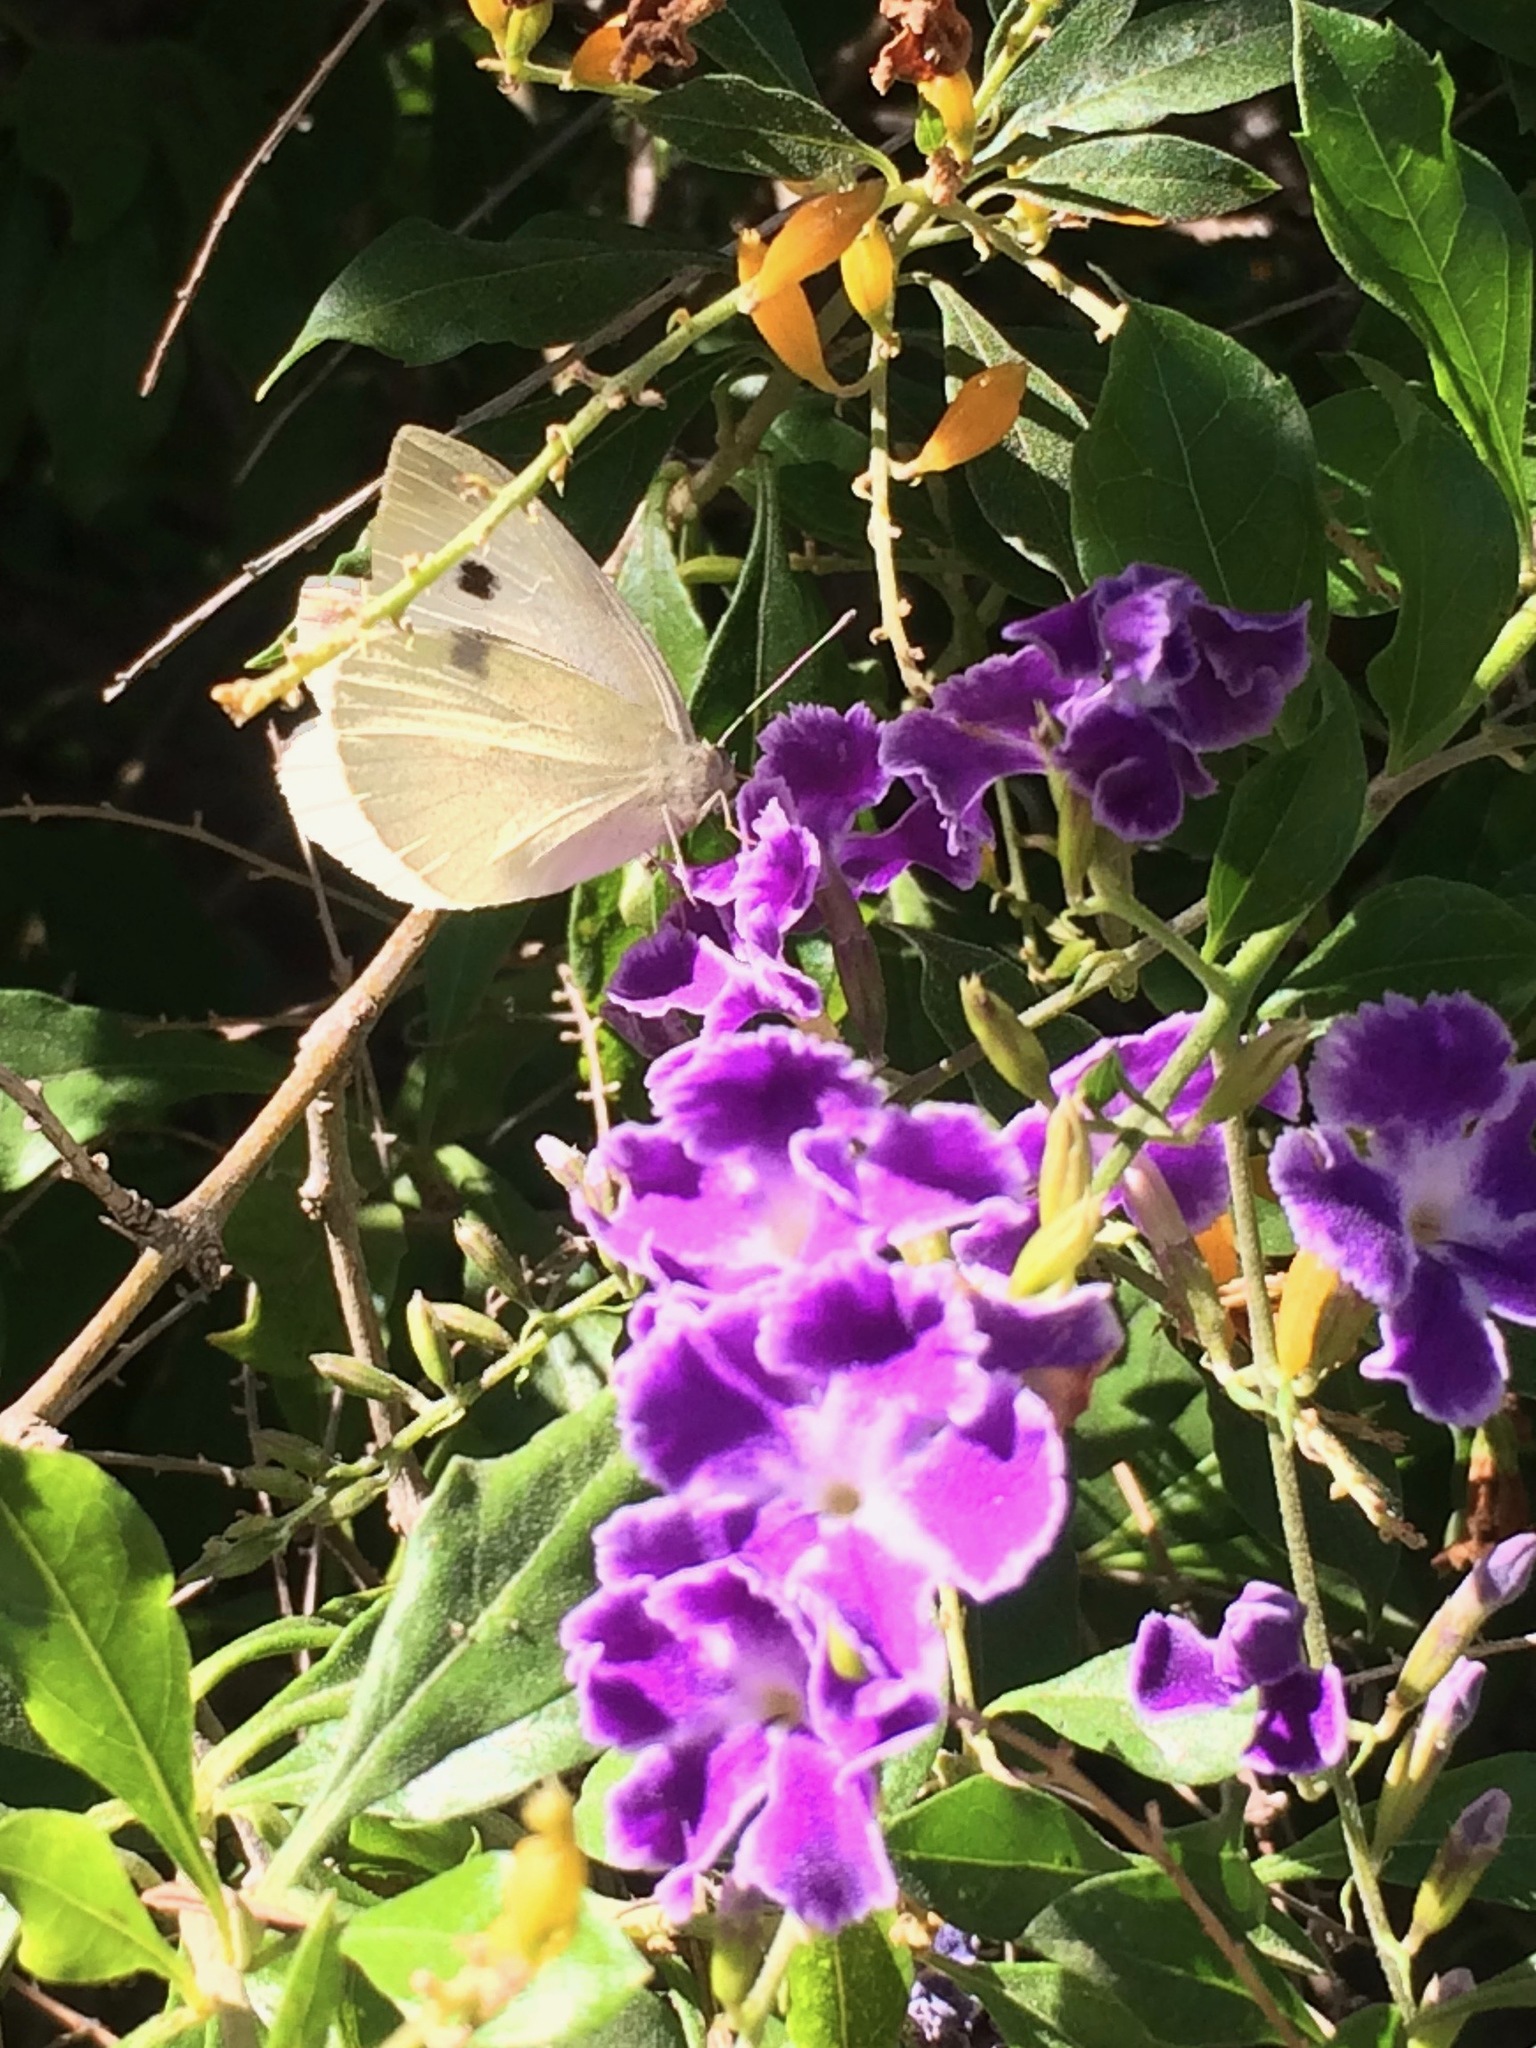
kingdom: Animalia
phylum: Arthropoda
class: Insecta
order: Lepidoptera
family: Pieridae
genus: Pieris
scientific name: Pieris rapae
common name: Small white
